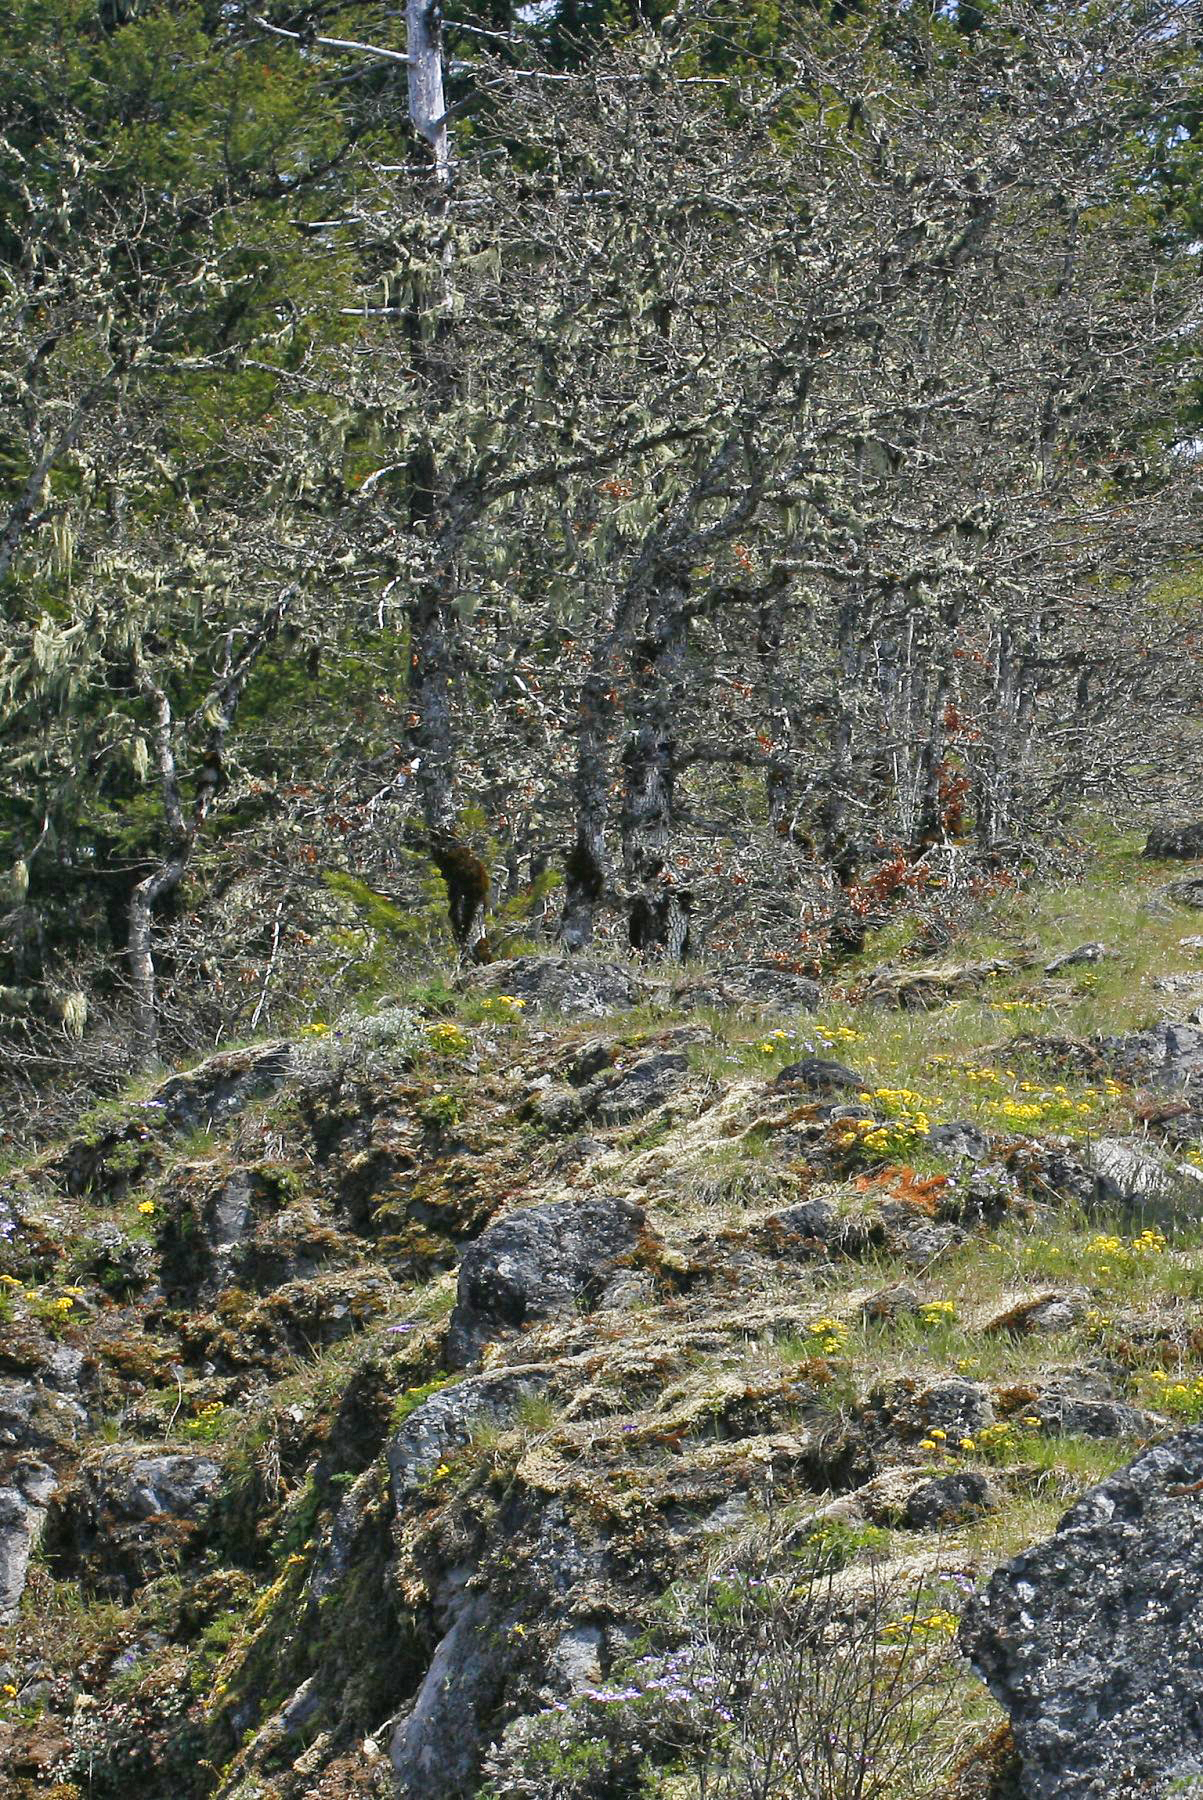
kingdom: Plantae
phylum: Tracheophyta
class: Magnoliopsida
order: Fagales
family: Fagaceae
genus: Quercus
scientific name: Quercus garryana
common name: Garry oak
